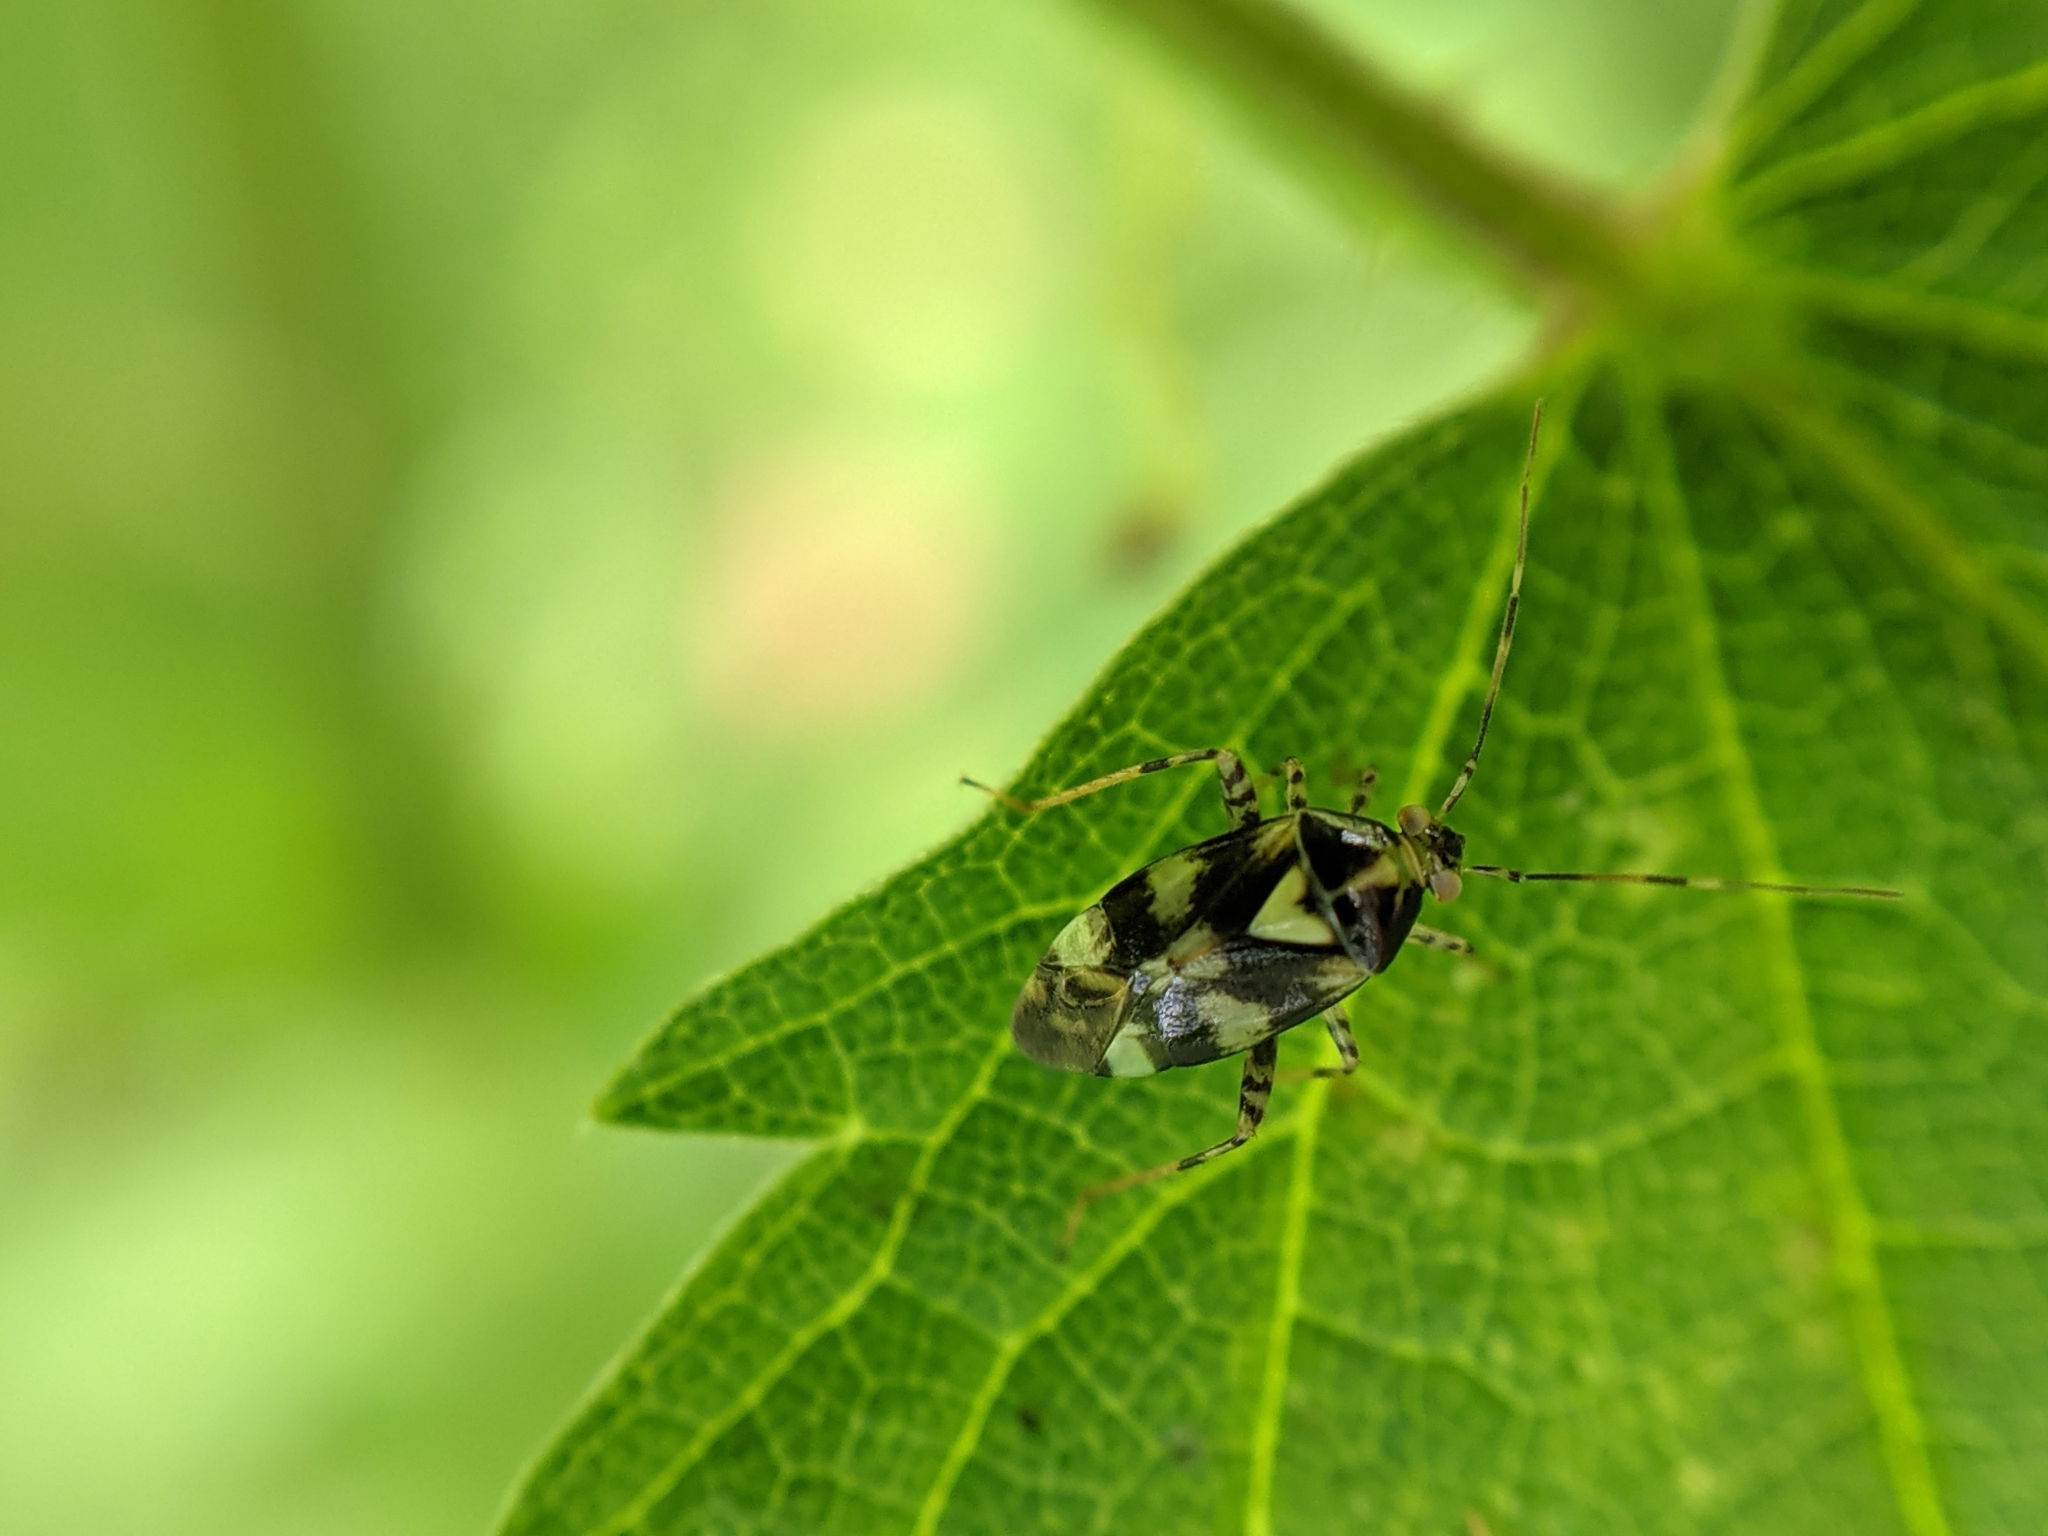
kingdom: Animalia
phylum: Arthropoda
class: Insecta
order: Hemiptera
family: Miridae
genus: Liocoris
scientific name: Liocoris tripustulatus
